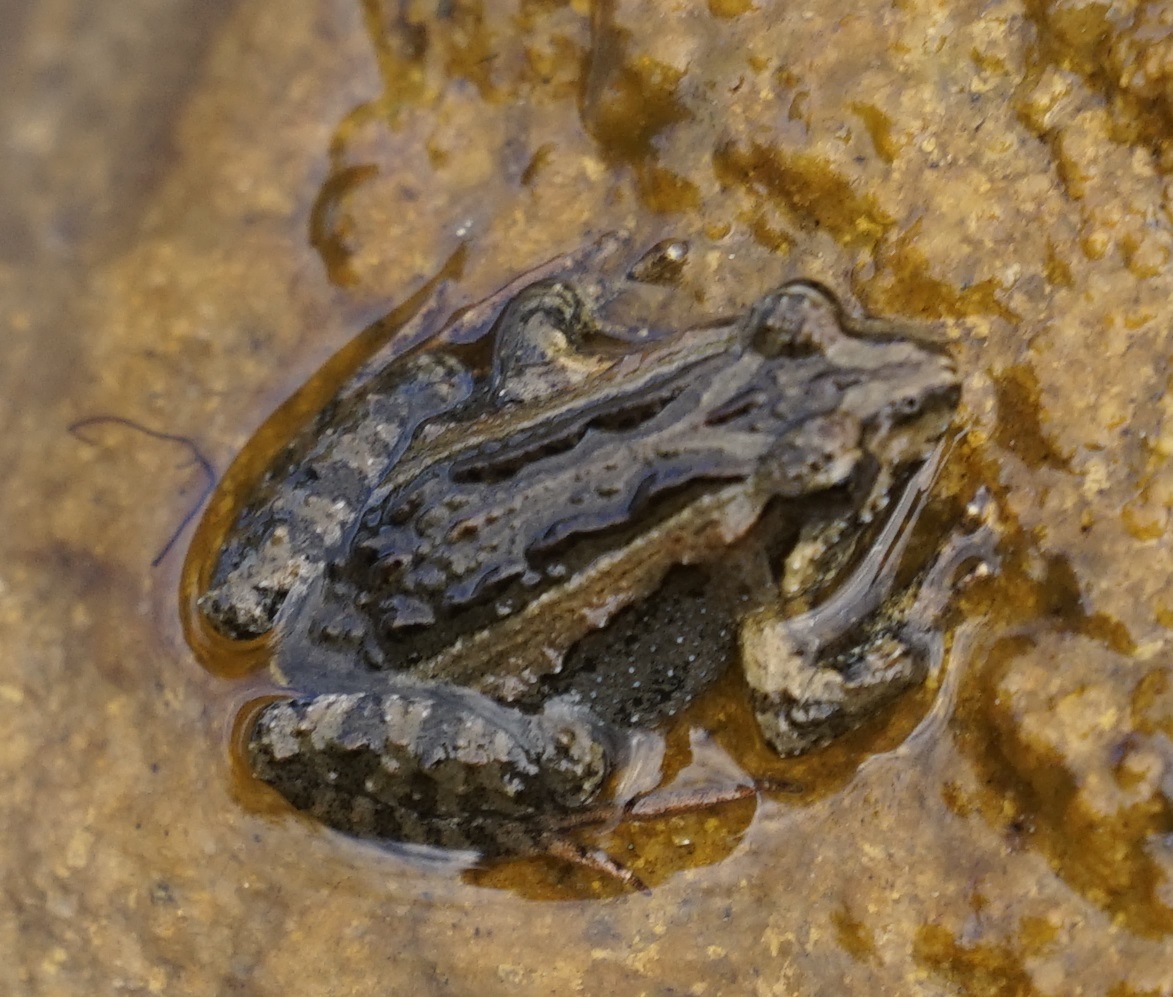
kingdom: Animalia
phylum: Chordata
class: Amphibia
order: Anura
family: Myobatrachidae
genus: Crinia
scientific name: Crinia signifera
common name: Brown froglet
